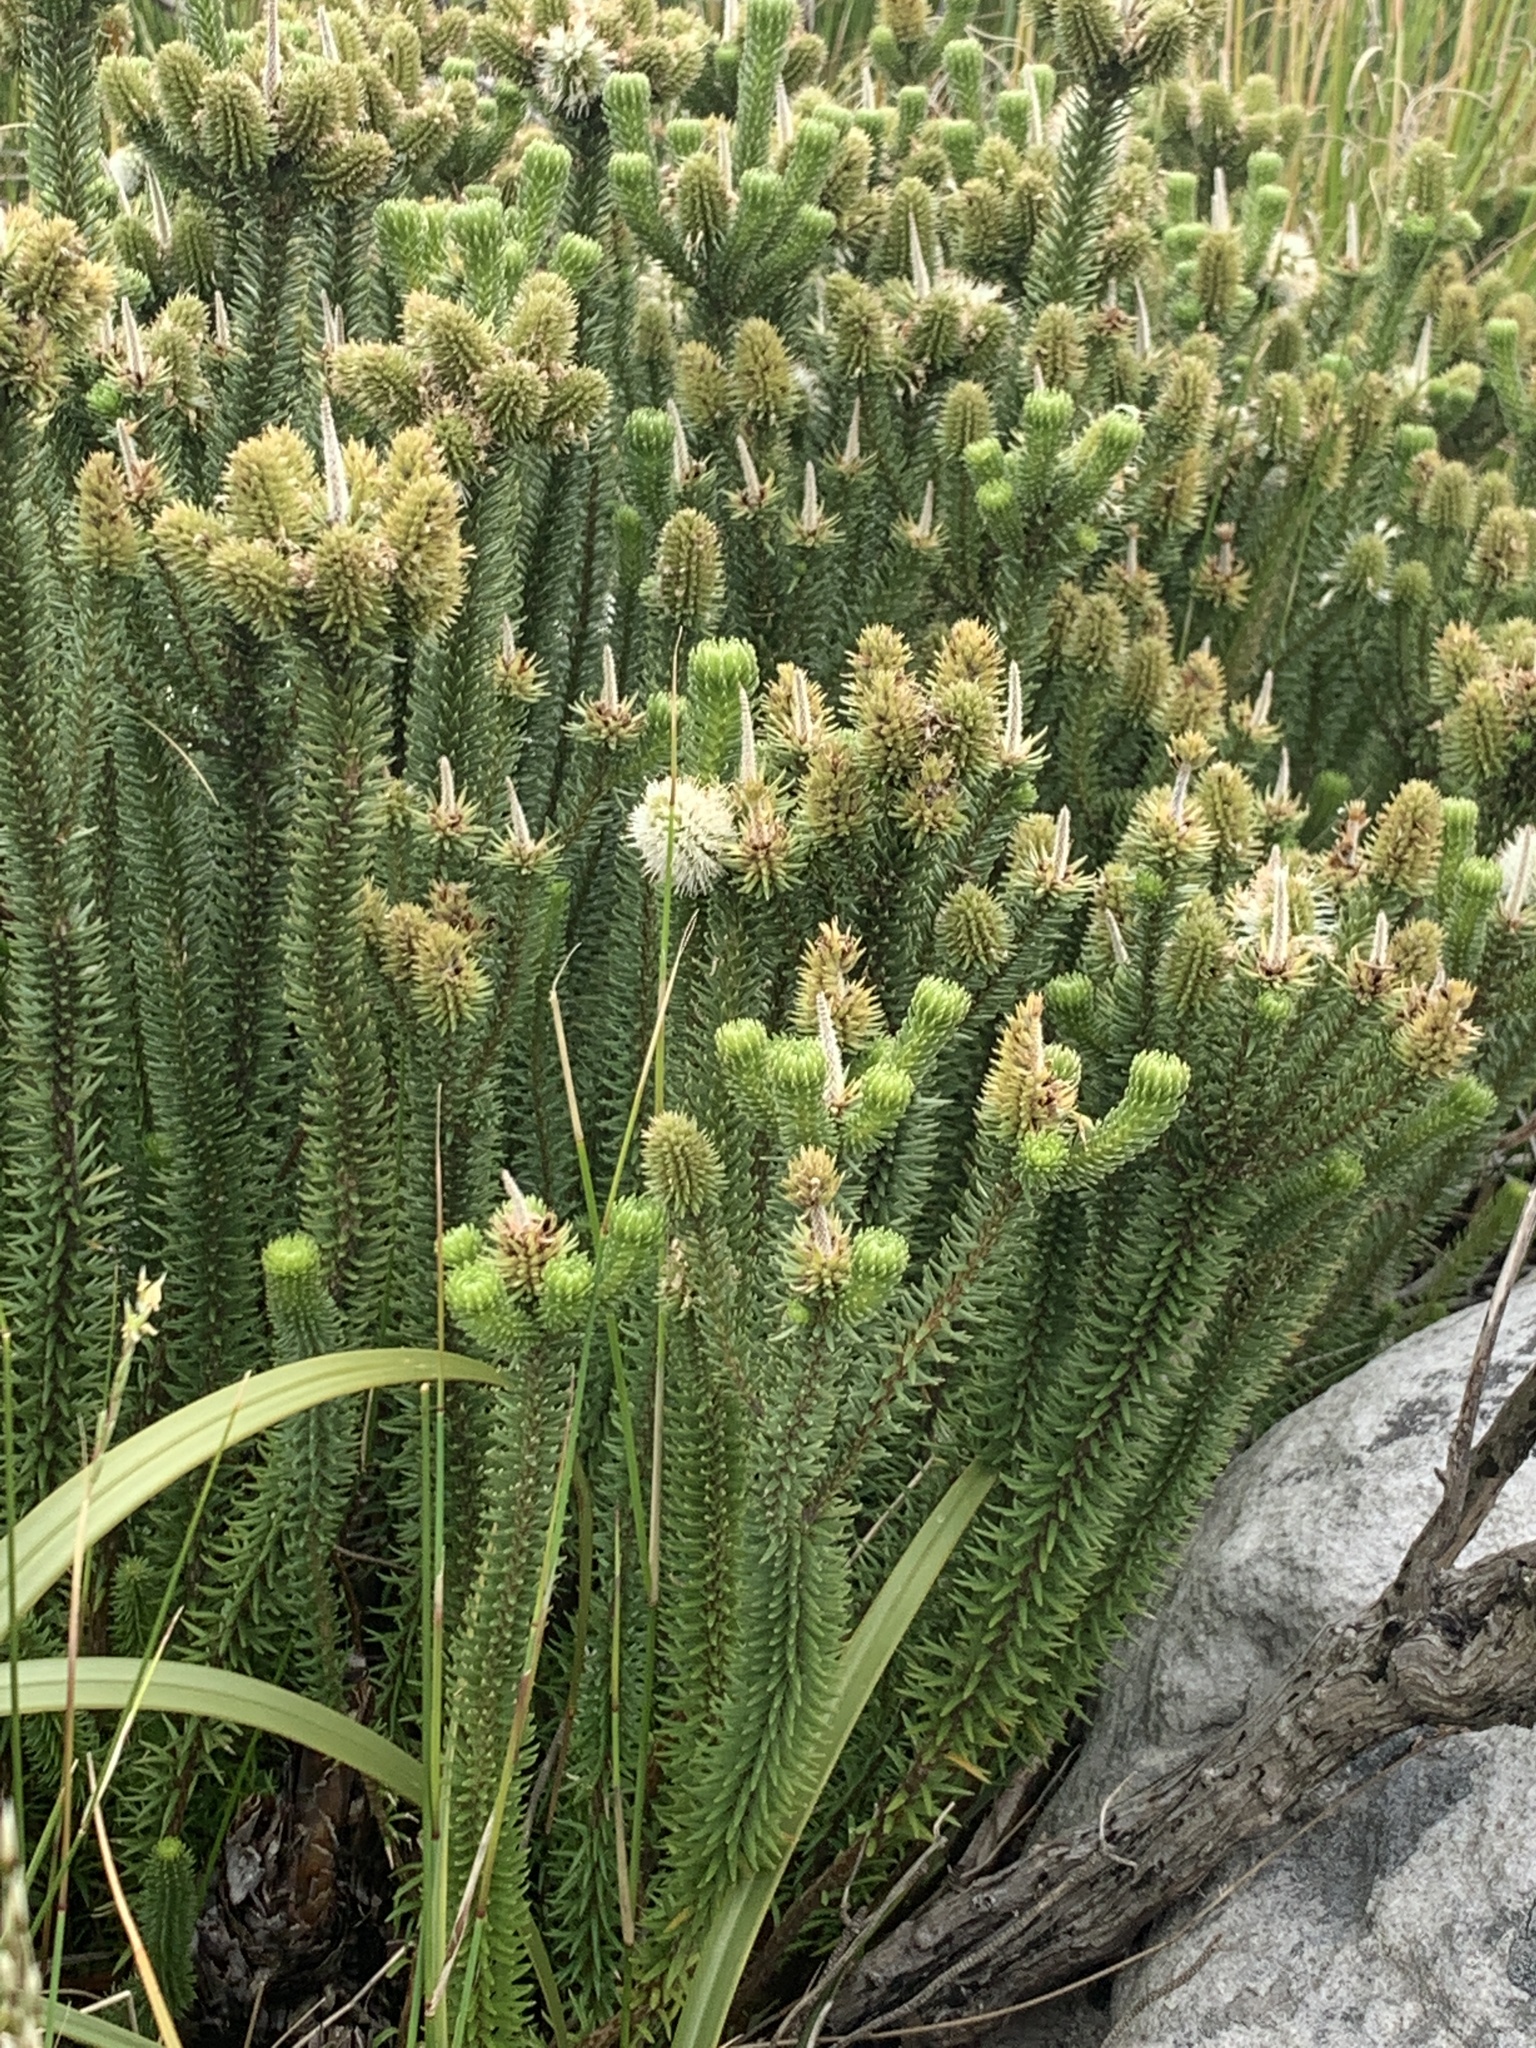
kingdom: Plantae
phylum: Tracheophyta
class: Magnoliopsida
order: Lamiales
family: Stilbaceae
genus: Stilbe
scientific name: Stilbe vestita
